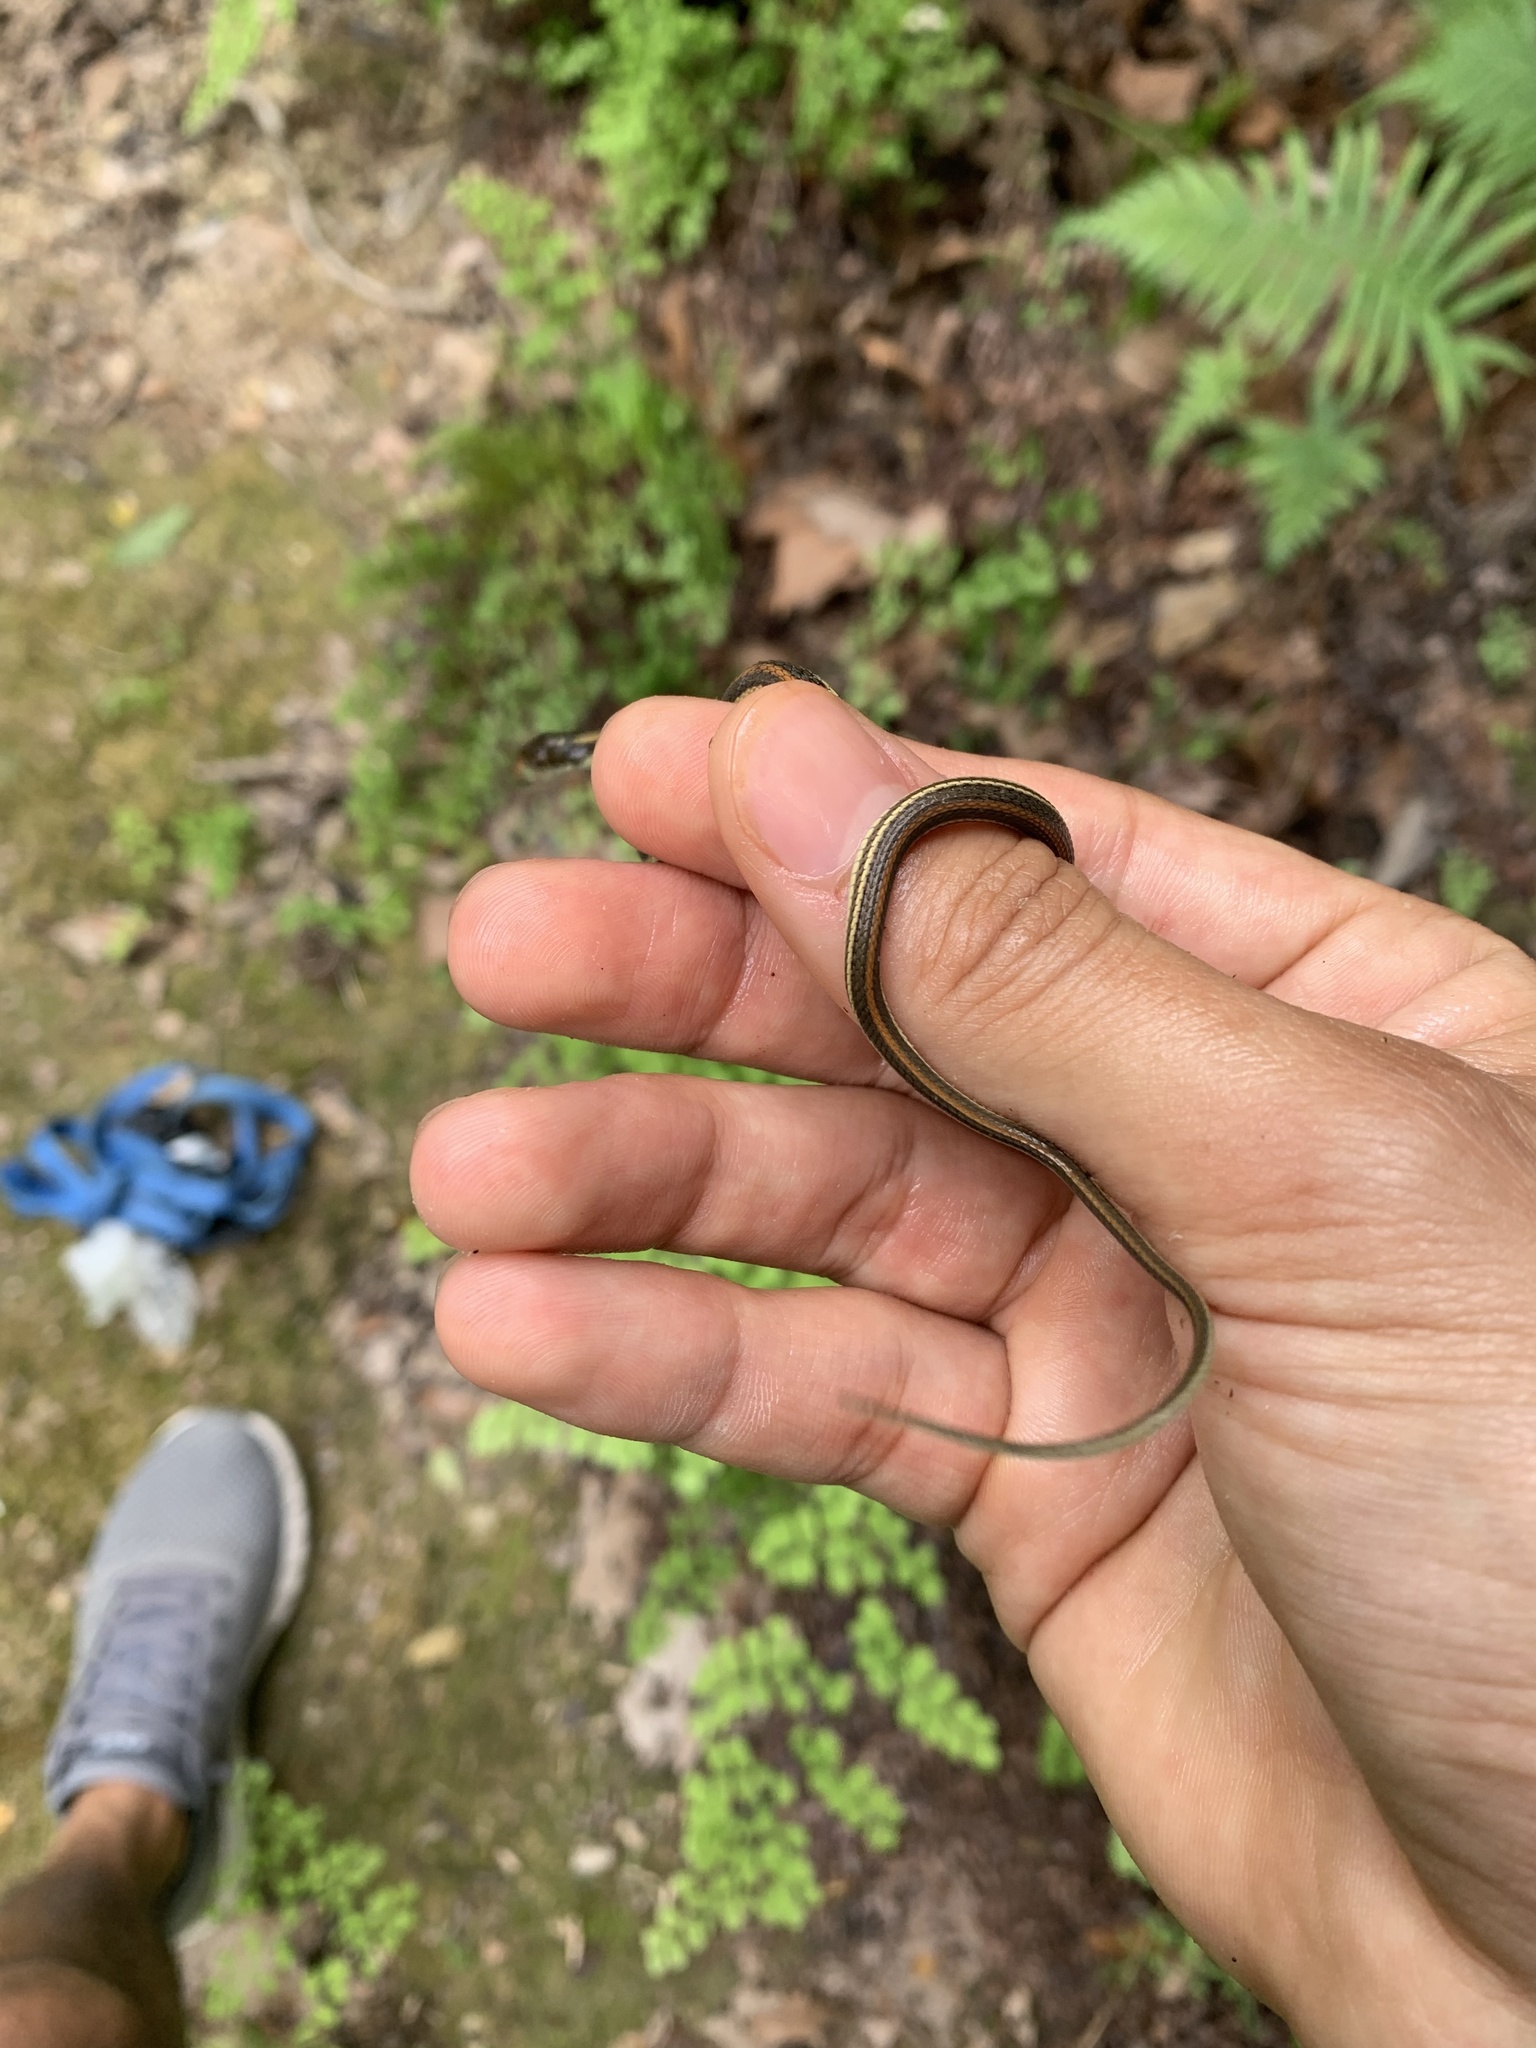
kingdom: Animalia
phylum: Chordata
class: Squamata
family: Colubridae
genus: Thamnophis
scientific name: Thamnophis proximus
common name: Western ribbon snake
